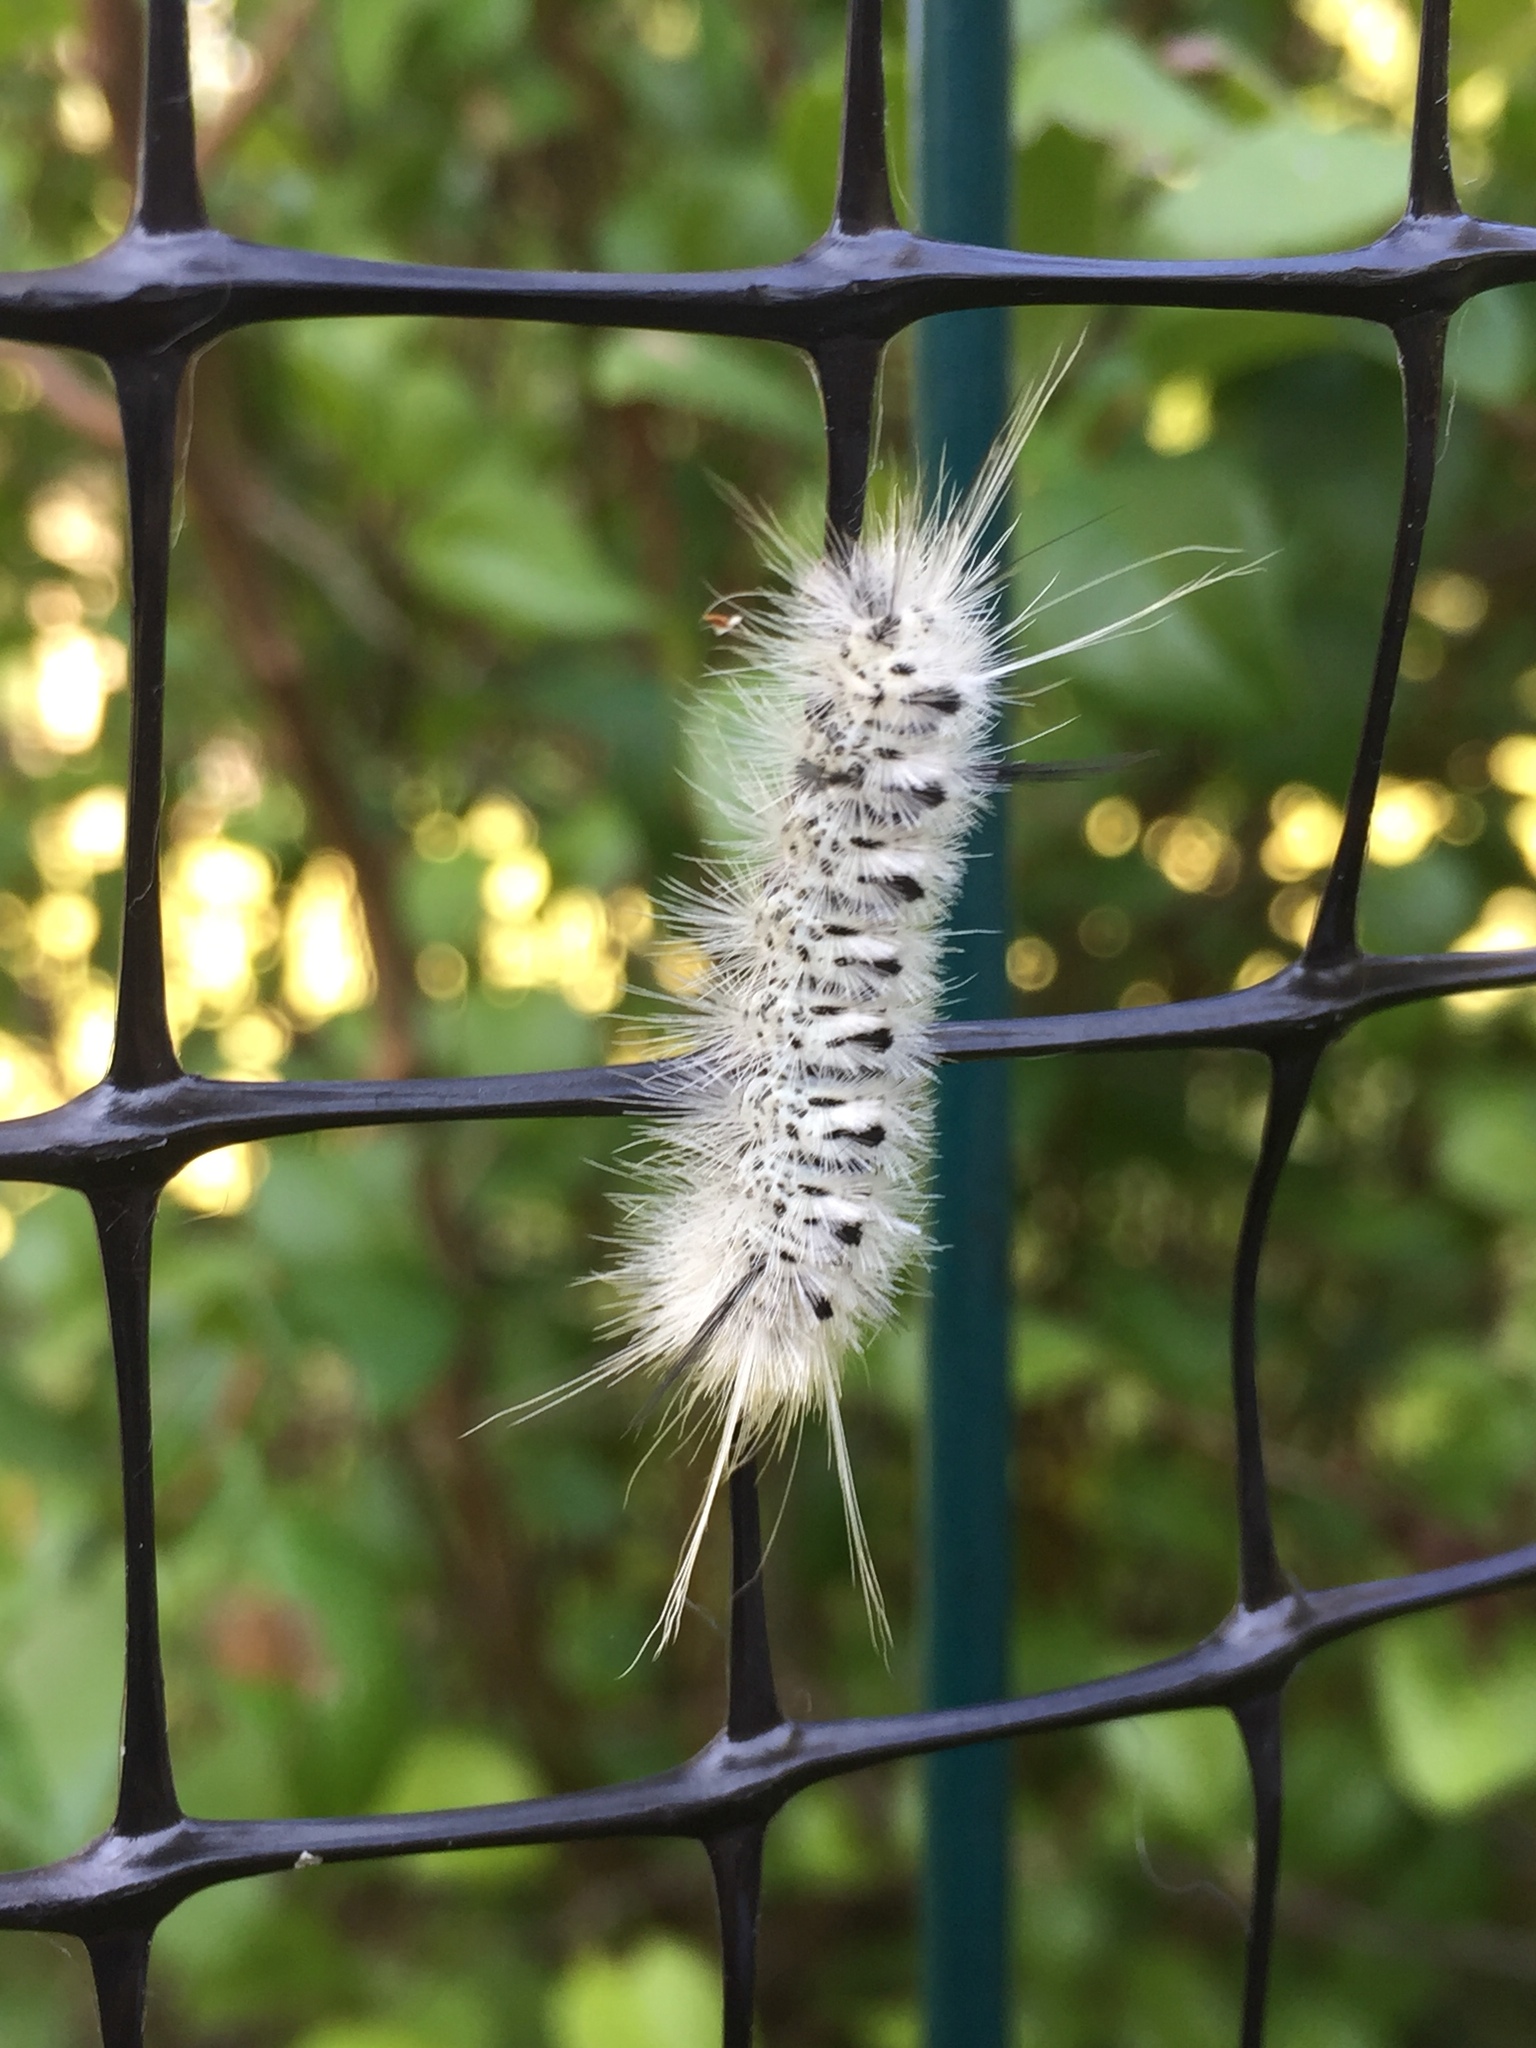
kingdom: Animalia
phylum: Arthropoda
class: Insecta
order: Lepidoptera
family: Erebidae
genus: Lophocampa
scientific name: Lophocampa caryae
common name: Hickory tussock moth
